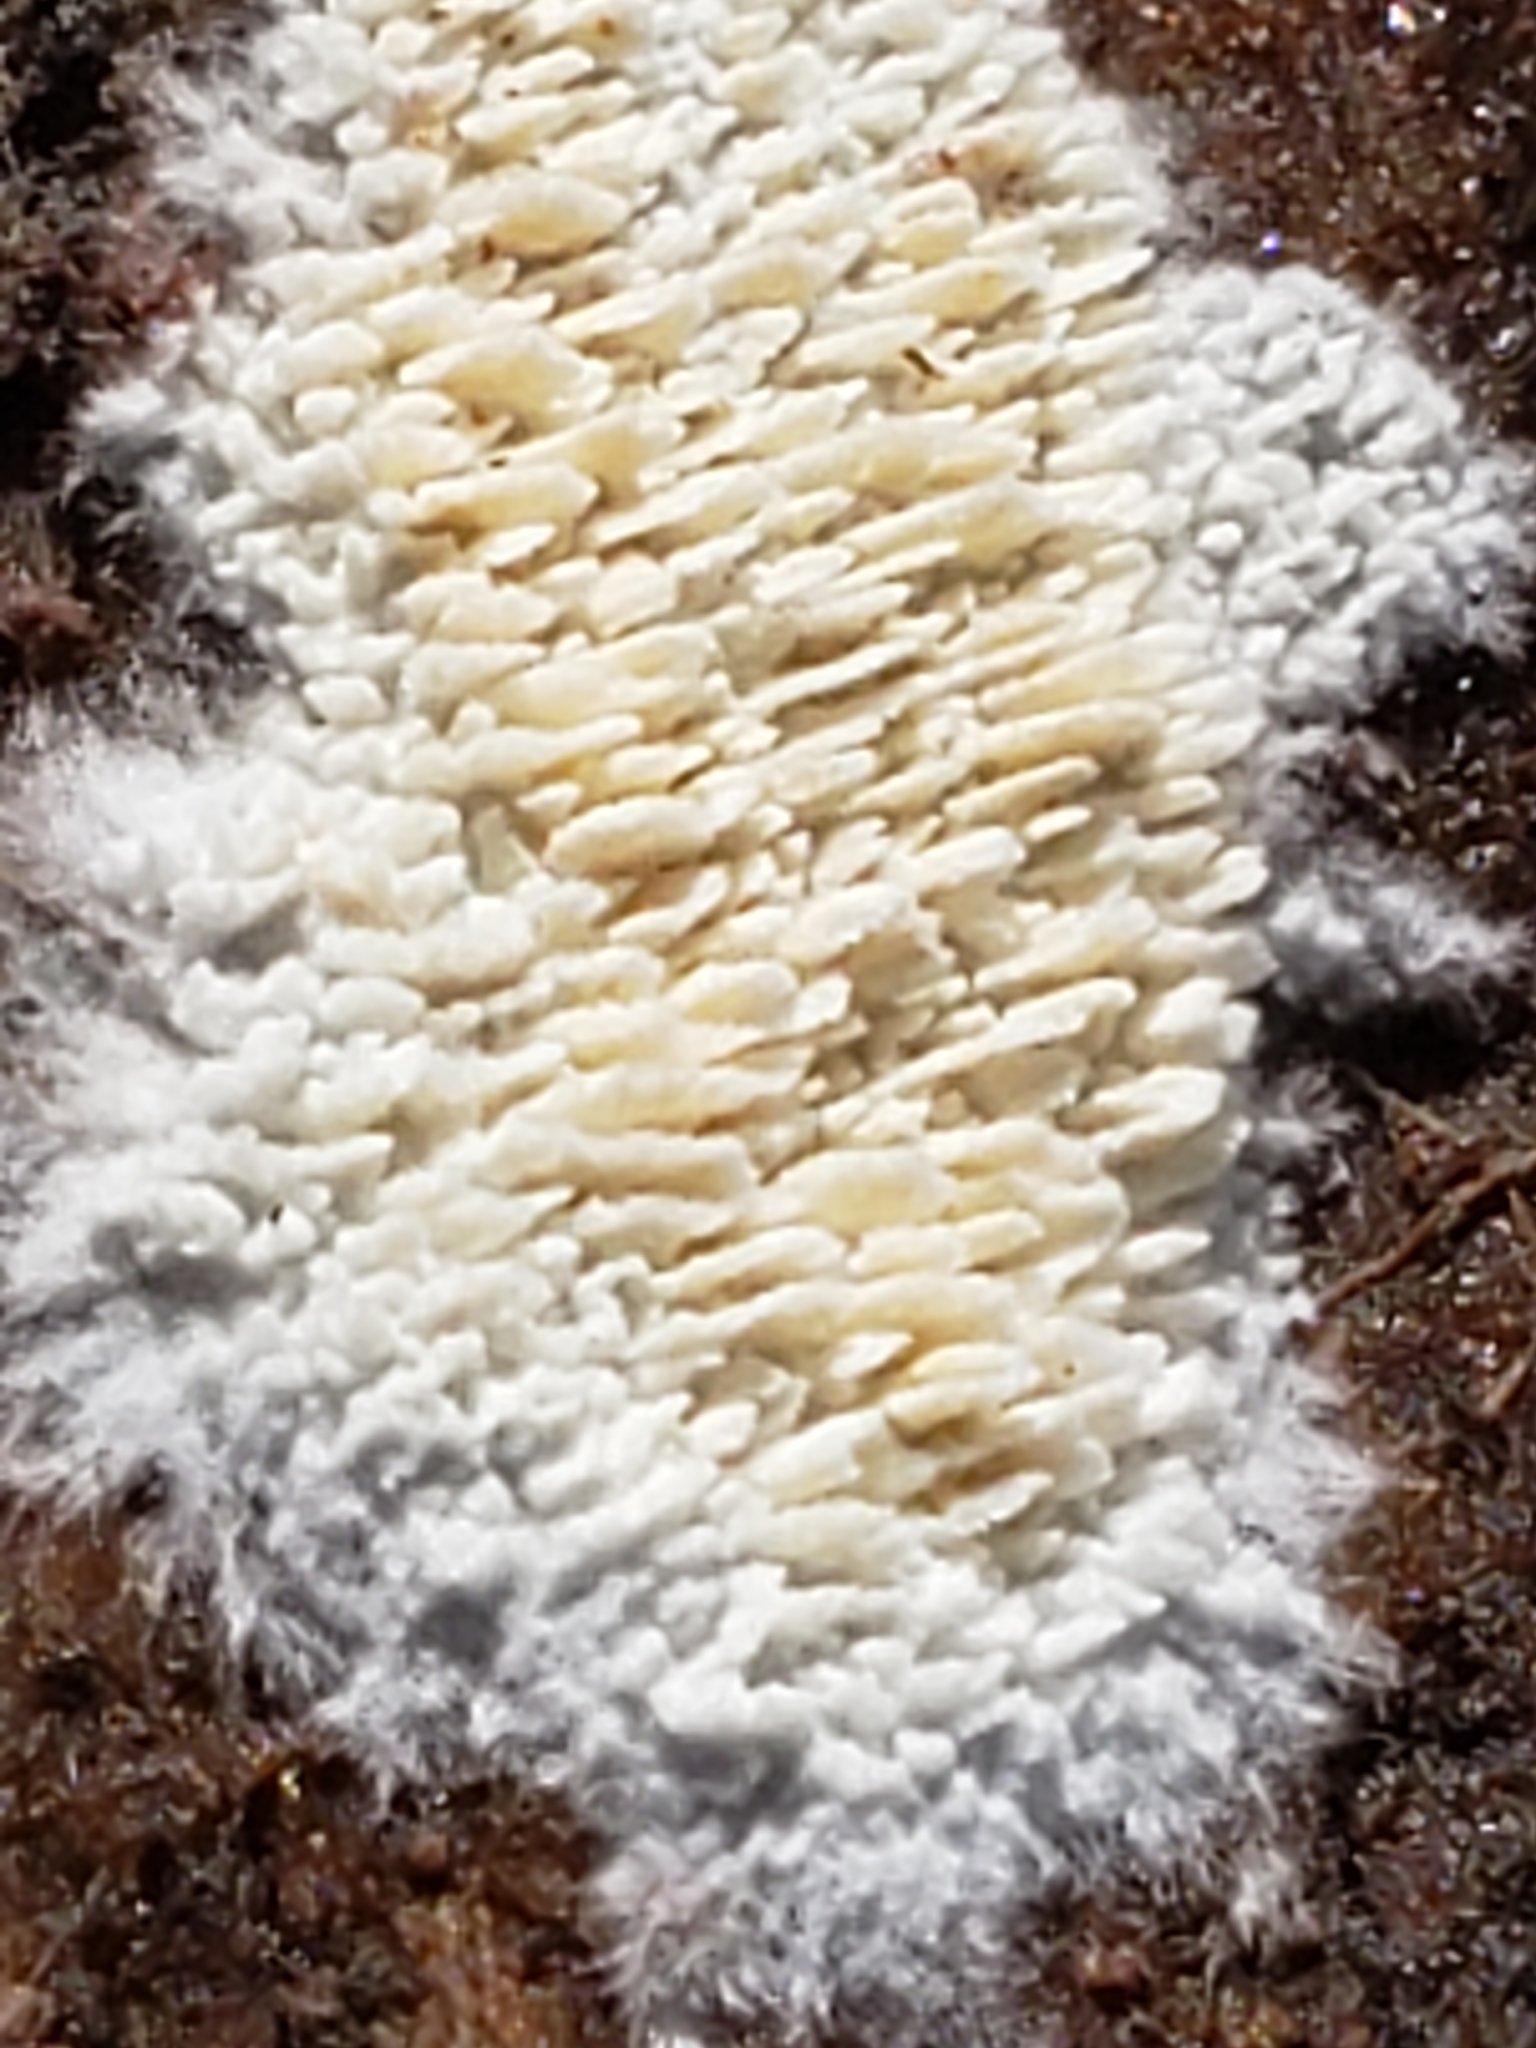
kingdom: Fungi
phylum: Basidiomycota
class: Agaricomycetes
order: Agaricales
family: Radulomycetaceae
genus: Radulomyces
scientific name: Radulomyces copelandii
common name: Asian beauty
